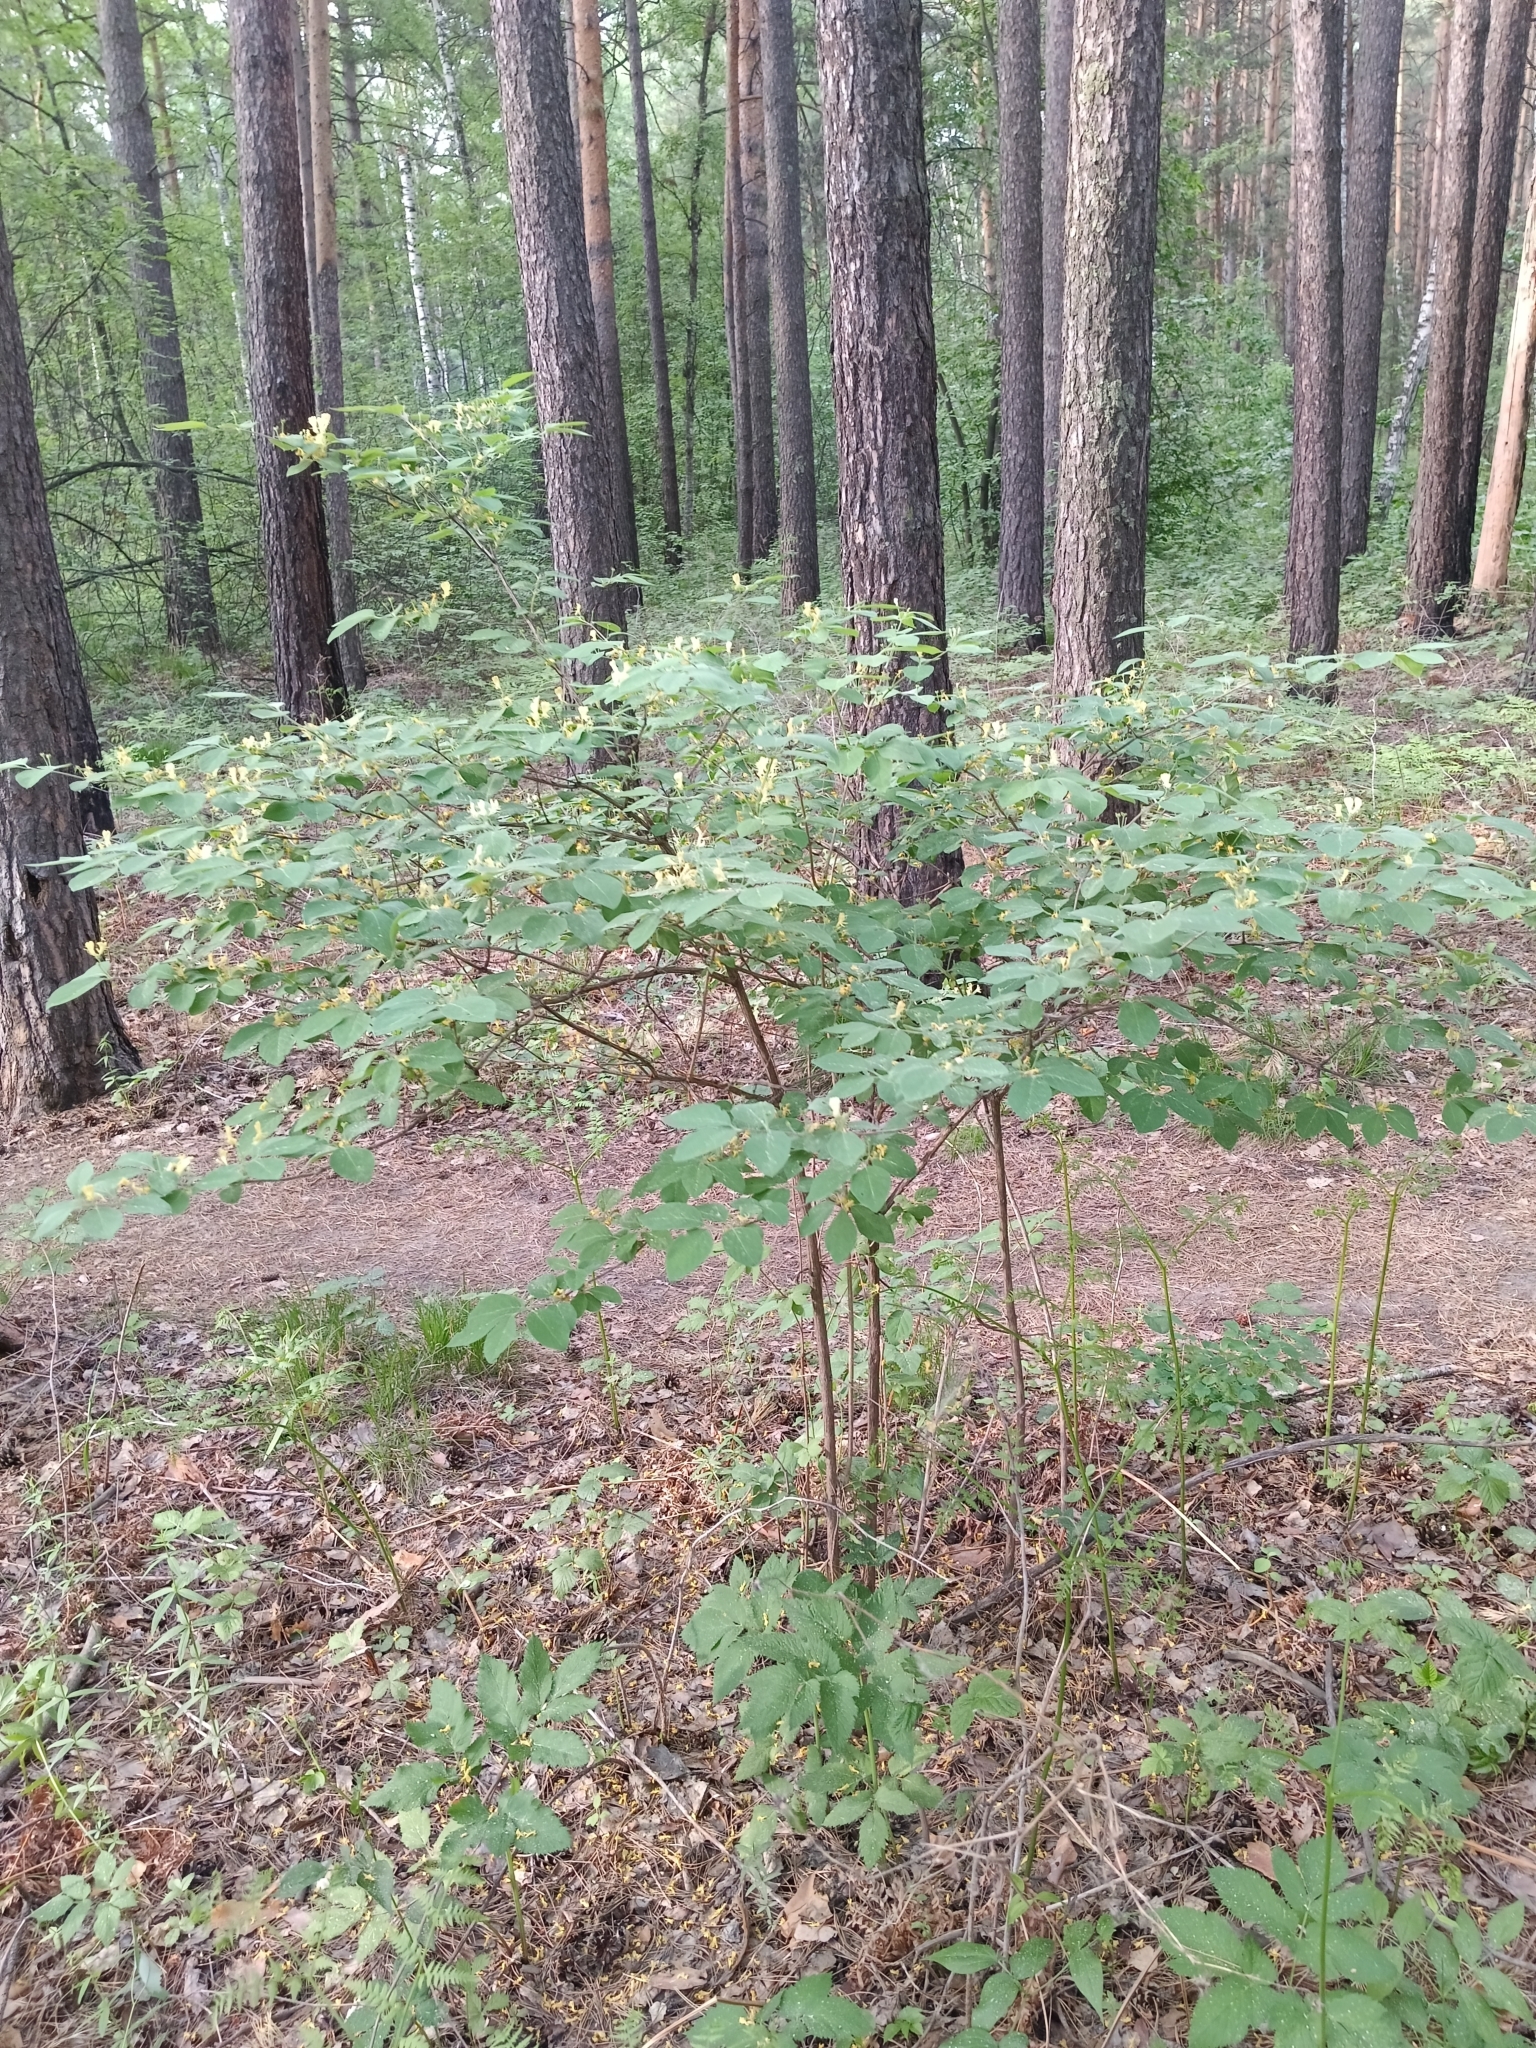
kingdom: Plantae
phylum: Tracheophyta
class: Magnoliopsida
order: Dipsacales
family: Caprifoliaceae
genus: Lonicera
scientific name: Lonicera xylosteum
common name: Fly honeysuckle
